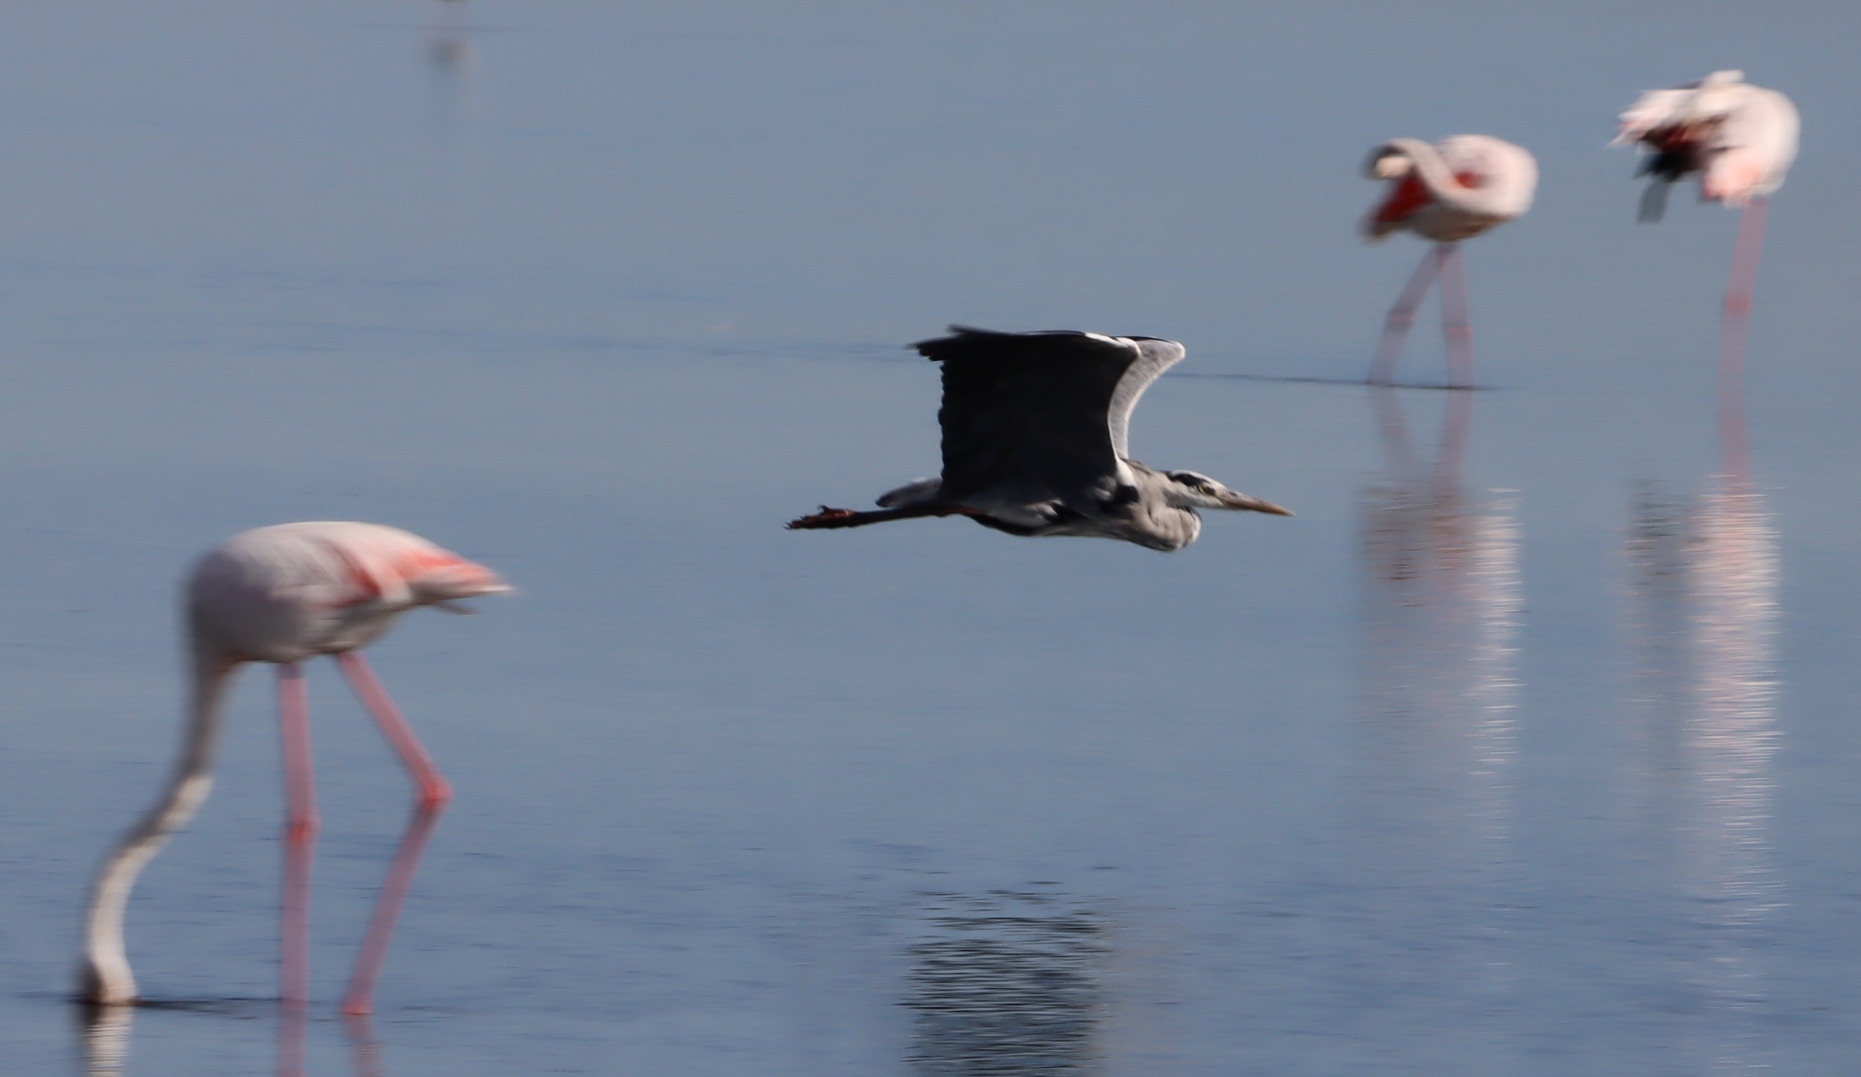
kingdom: Animalia
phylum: Chordata
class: Aves
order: Pelecaniformes
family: Ardeidae
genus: Ardea
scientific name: Ardea cinerea
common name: Grey heron
